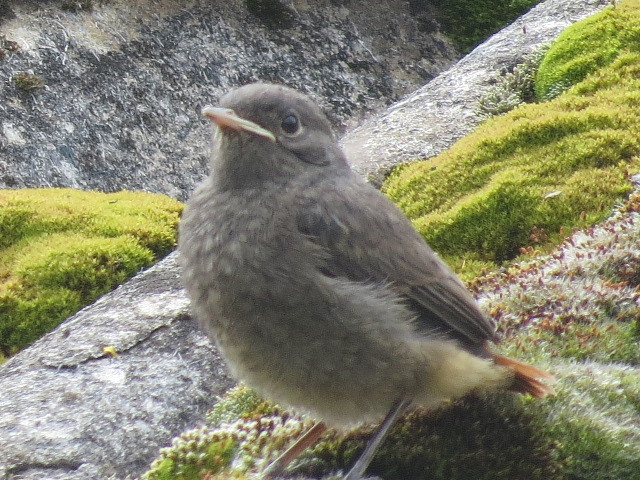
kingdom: Animalia
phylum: Chordata
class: Aves
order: Passeriformes
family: Muscicapidae
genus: Phoenicurus
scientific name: Phoenicurus ochruros
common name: Black redstart
